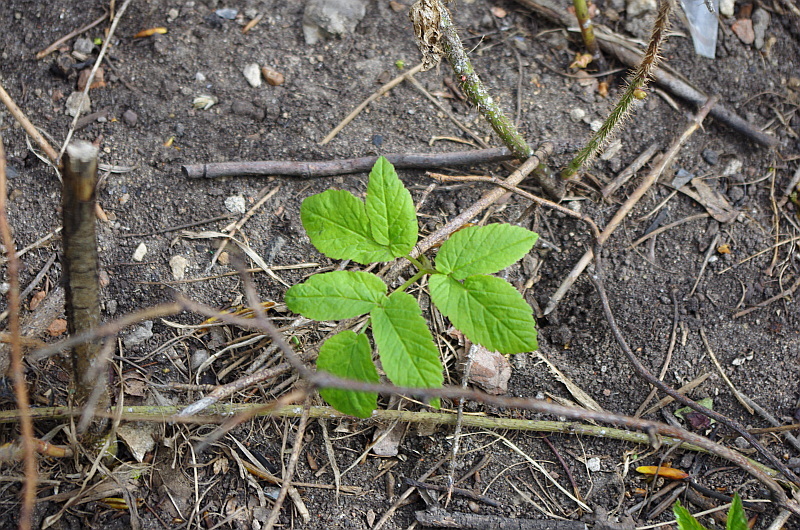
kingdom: Plantae
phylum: Tracheophyta
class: Magnoliopsida
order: Apiales
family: Apiaceae
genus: Aegopodium
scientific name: Aegopodium podagraria
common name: Ground-elder
